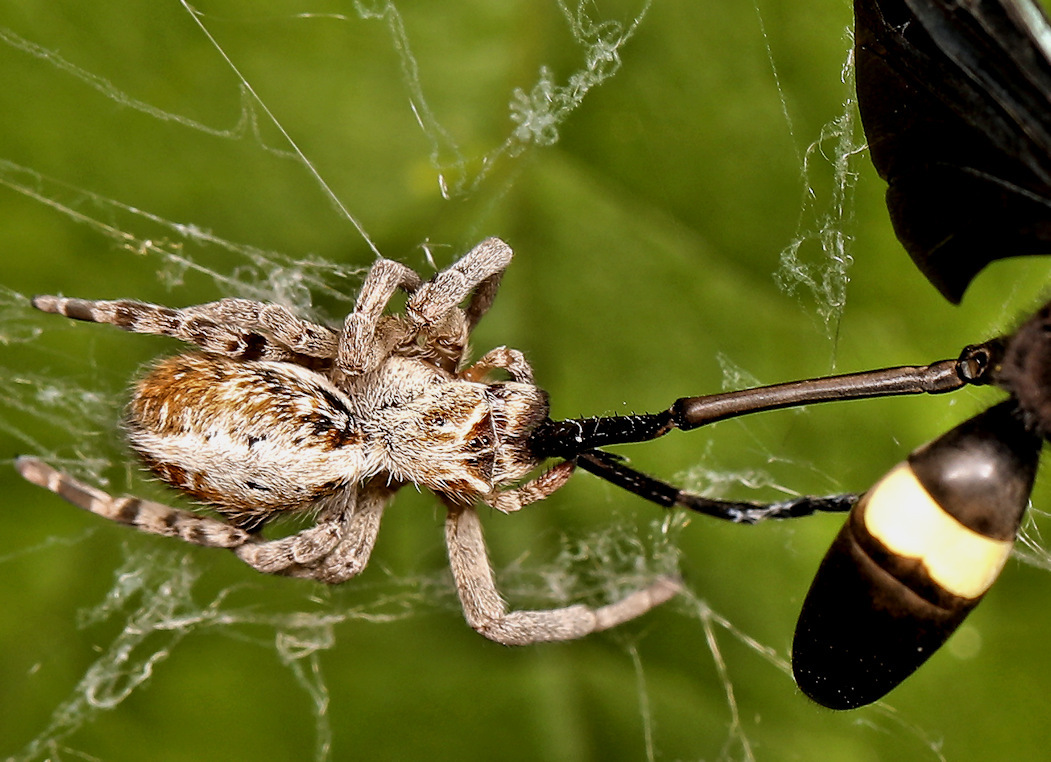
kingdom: Animalia
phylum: Arthropoda
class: Arachnida
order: Araneae
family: Eresidae
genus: Stegodyphus
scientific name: Stegodyphus dumicola
